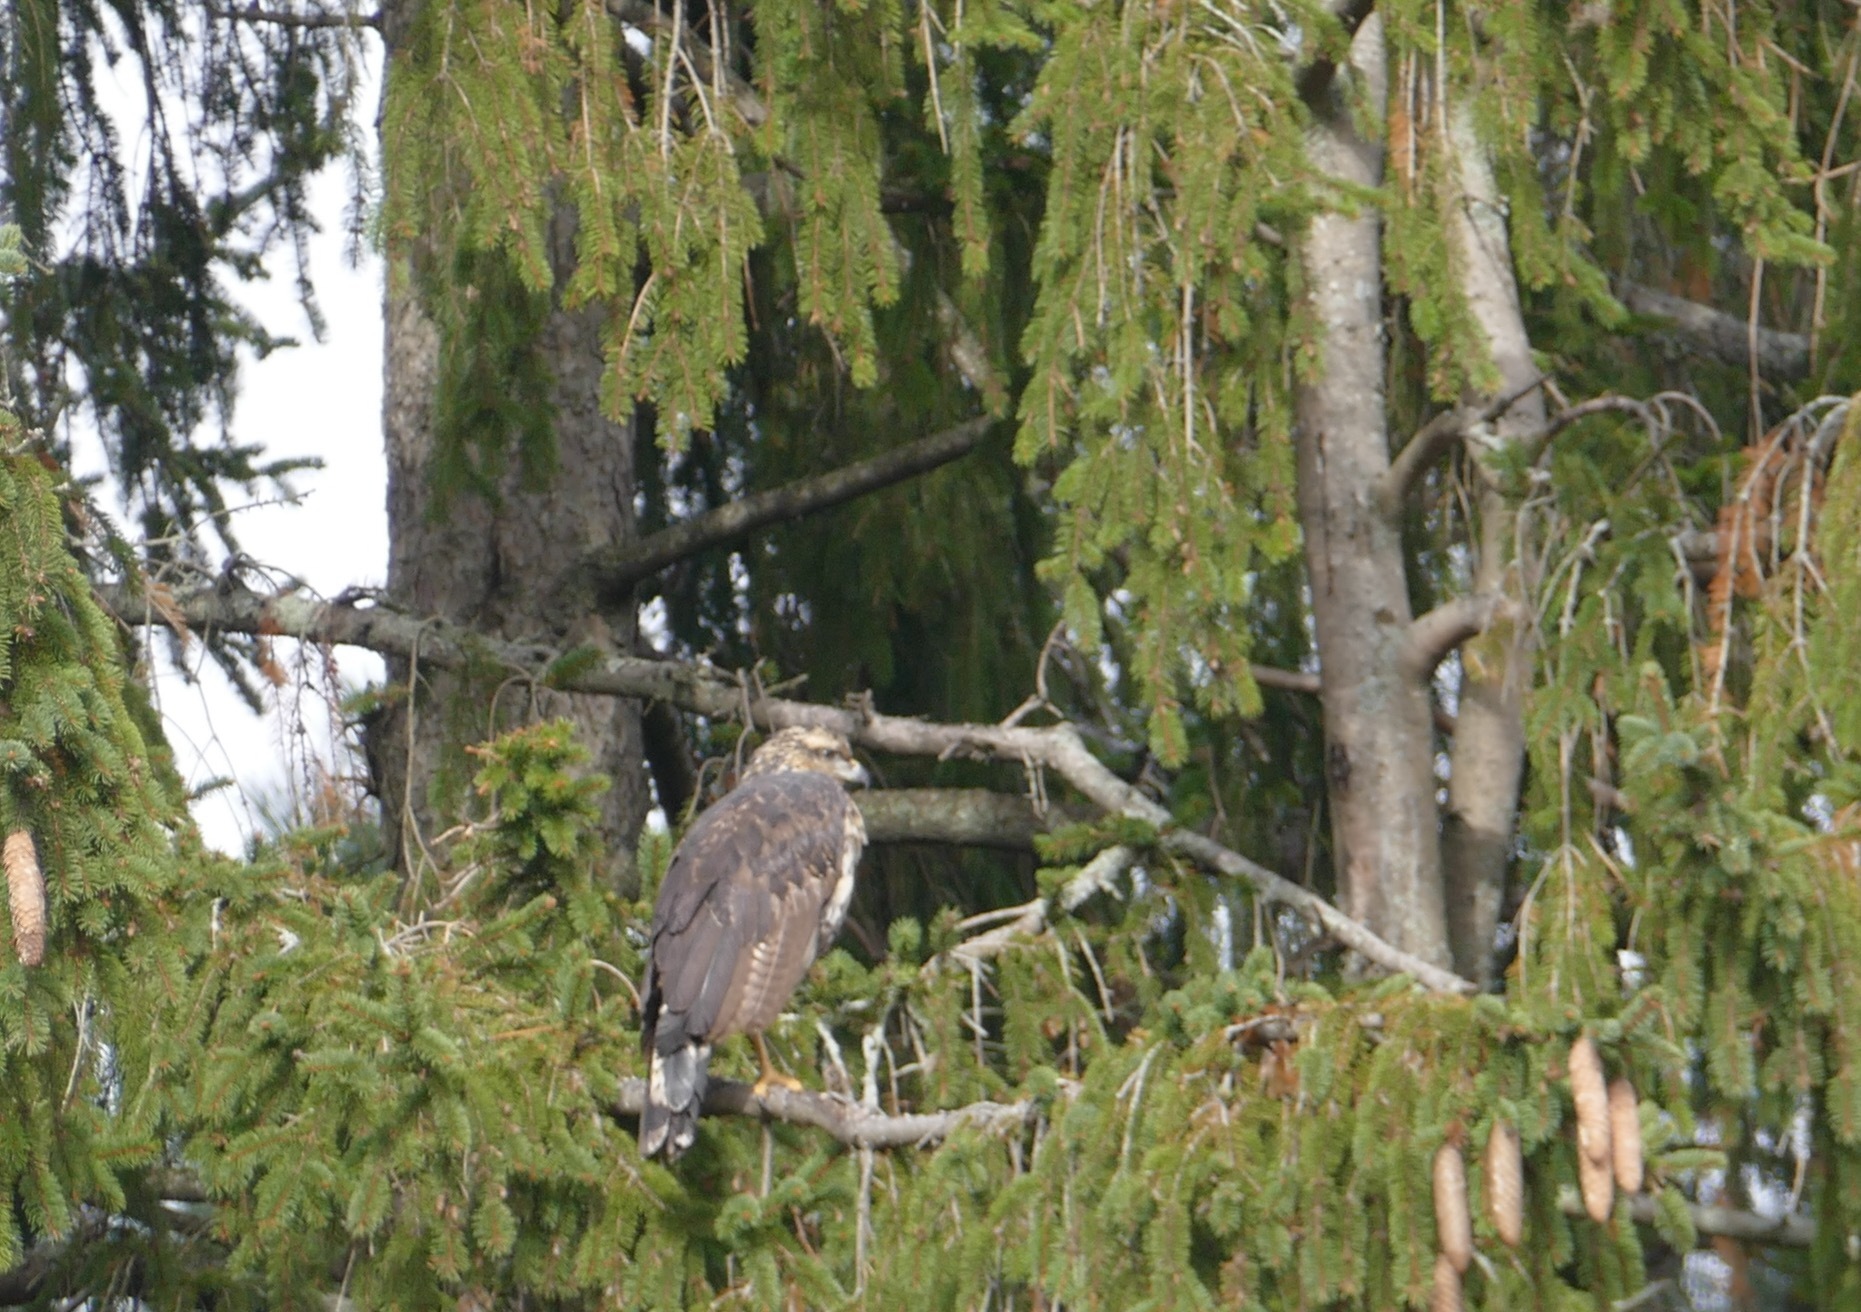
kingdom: Animalia
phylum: Chordata
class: Aves
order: Accipitriformes
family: Accipitridae
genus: Buteogallus
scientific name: Buteogallus urubitinga
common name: Great black hawk
